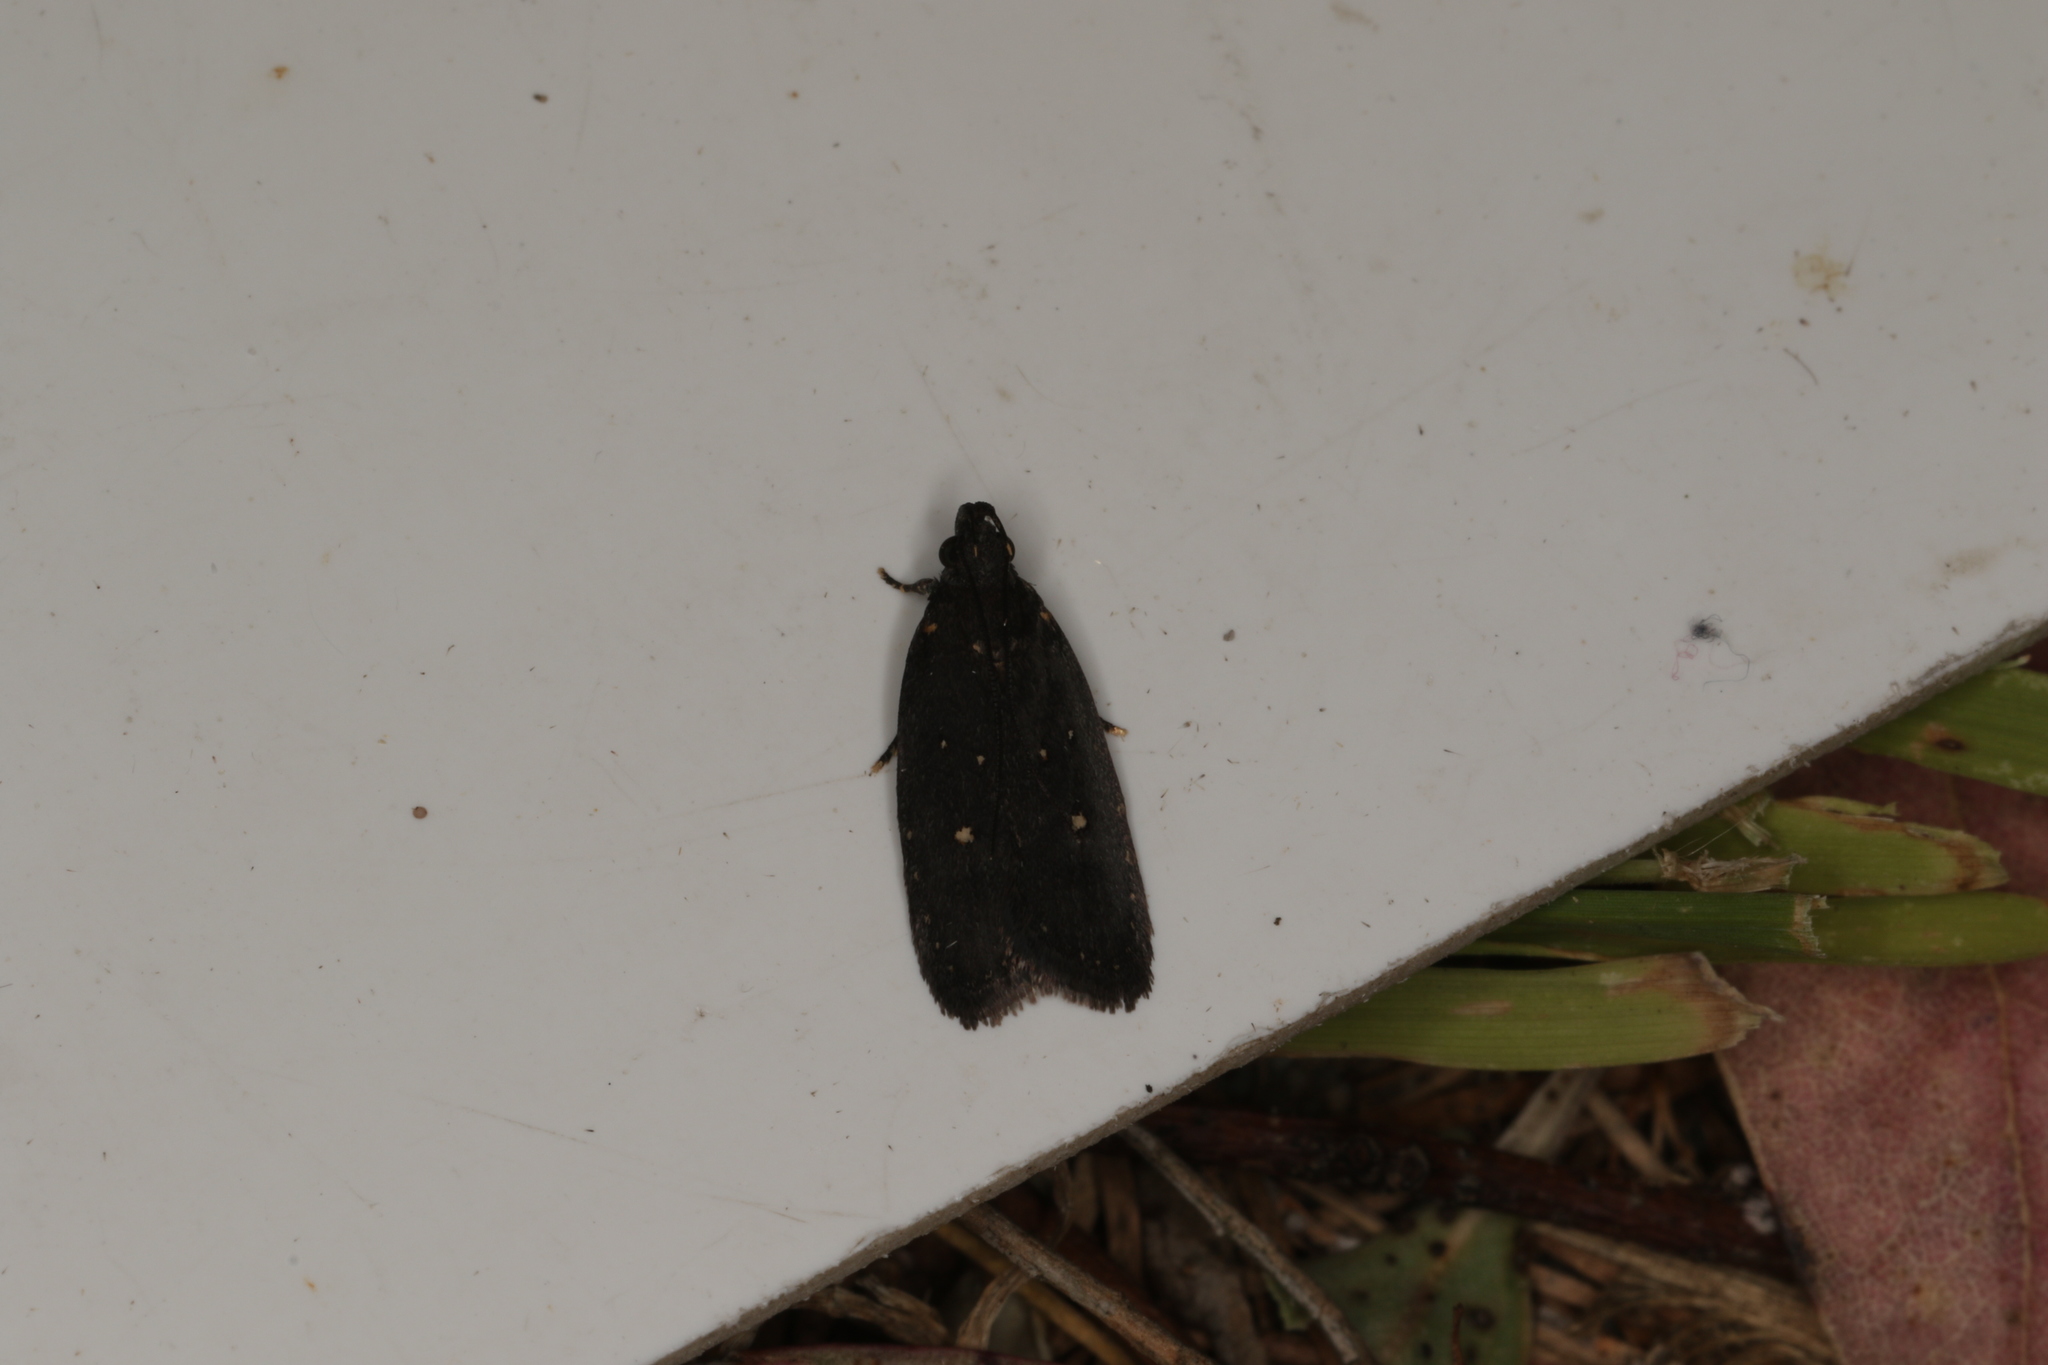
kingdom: Animalia
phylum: Arthropoda
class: Insecta
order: Lepidoptera
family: Gelechiidae
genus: Ardozyga
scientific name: Ardozyga nyctias
